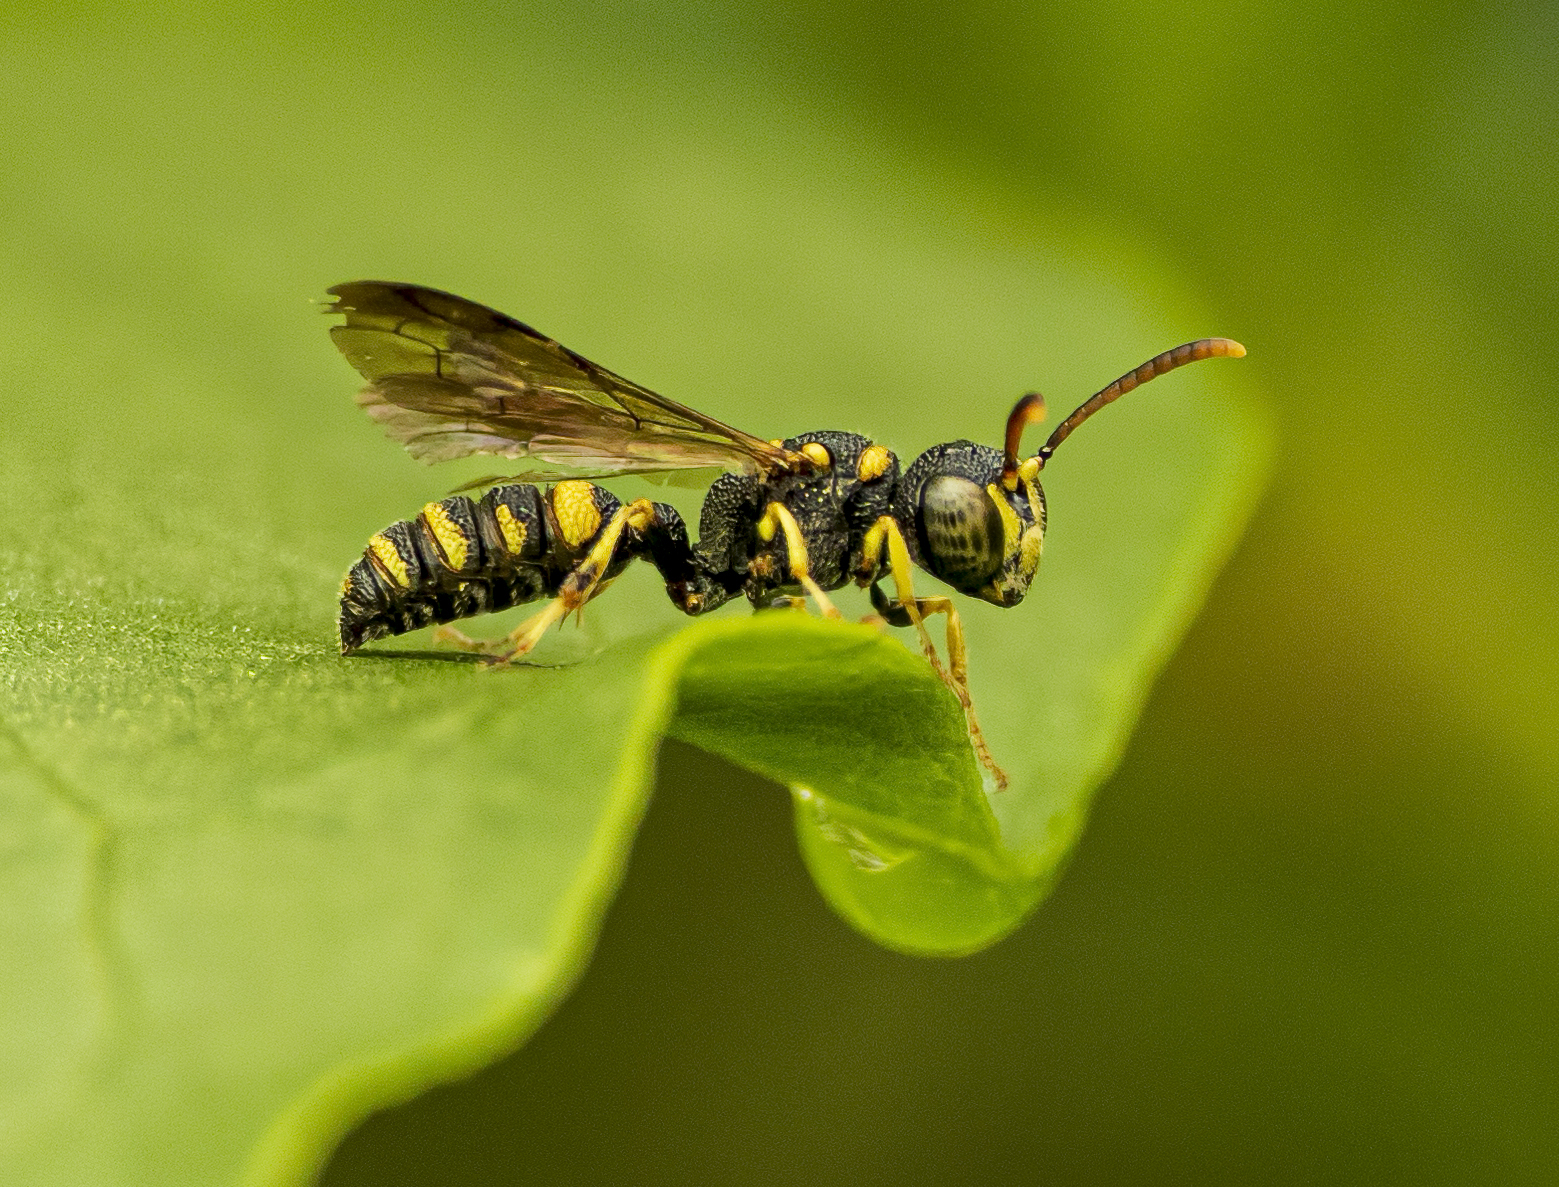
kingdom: Animalia
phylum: Arthropoda
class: Insecta
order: Hymenoptera
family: Crabronidae
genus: Cerceris
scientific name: Cerceris kennicottii
